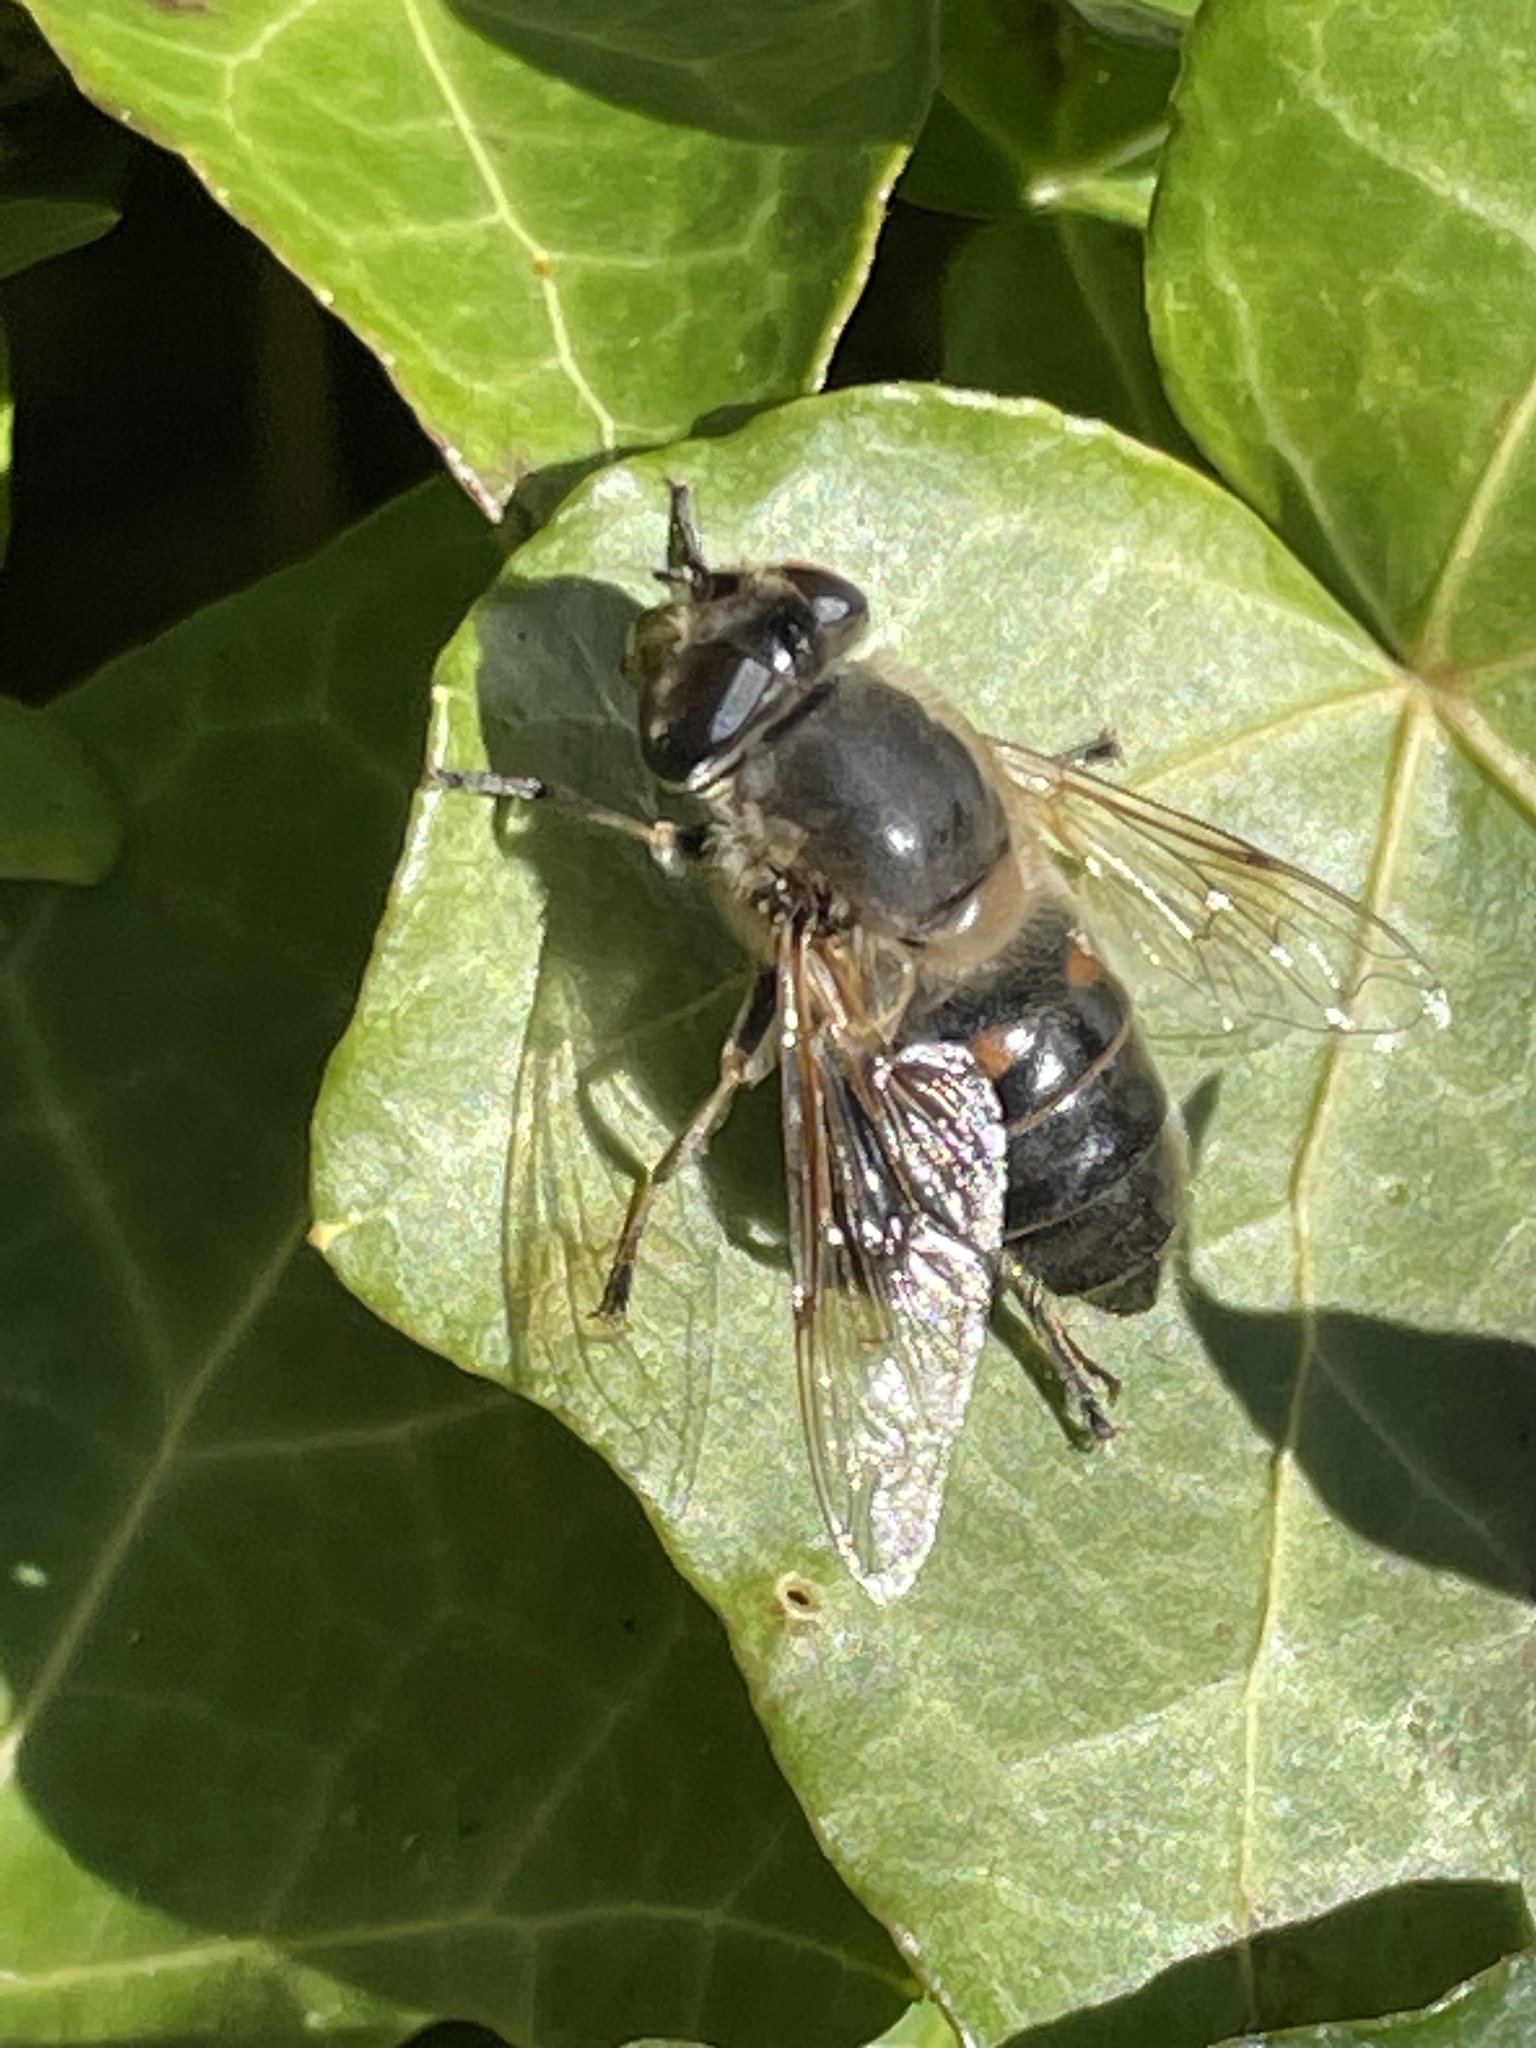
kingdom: Animalia
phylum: Arthropoda
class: Insecta
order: Diptera
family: Syrphidae
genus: Eristalis
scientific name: Eristalis tenax
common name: Drone fly
